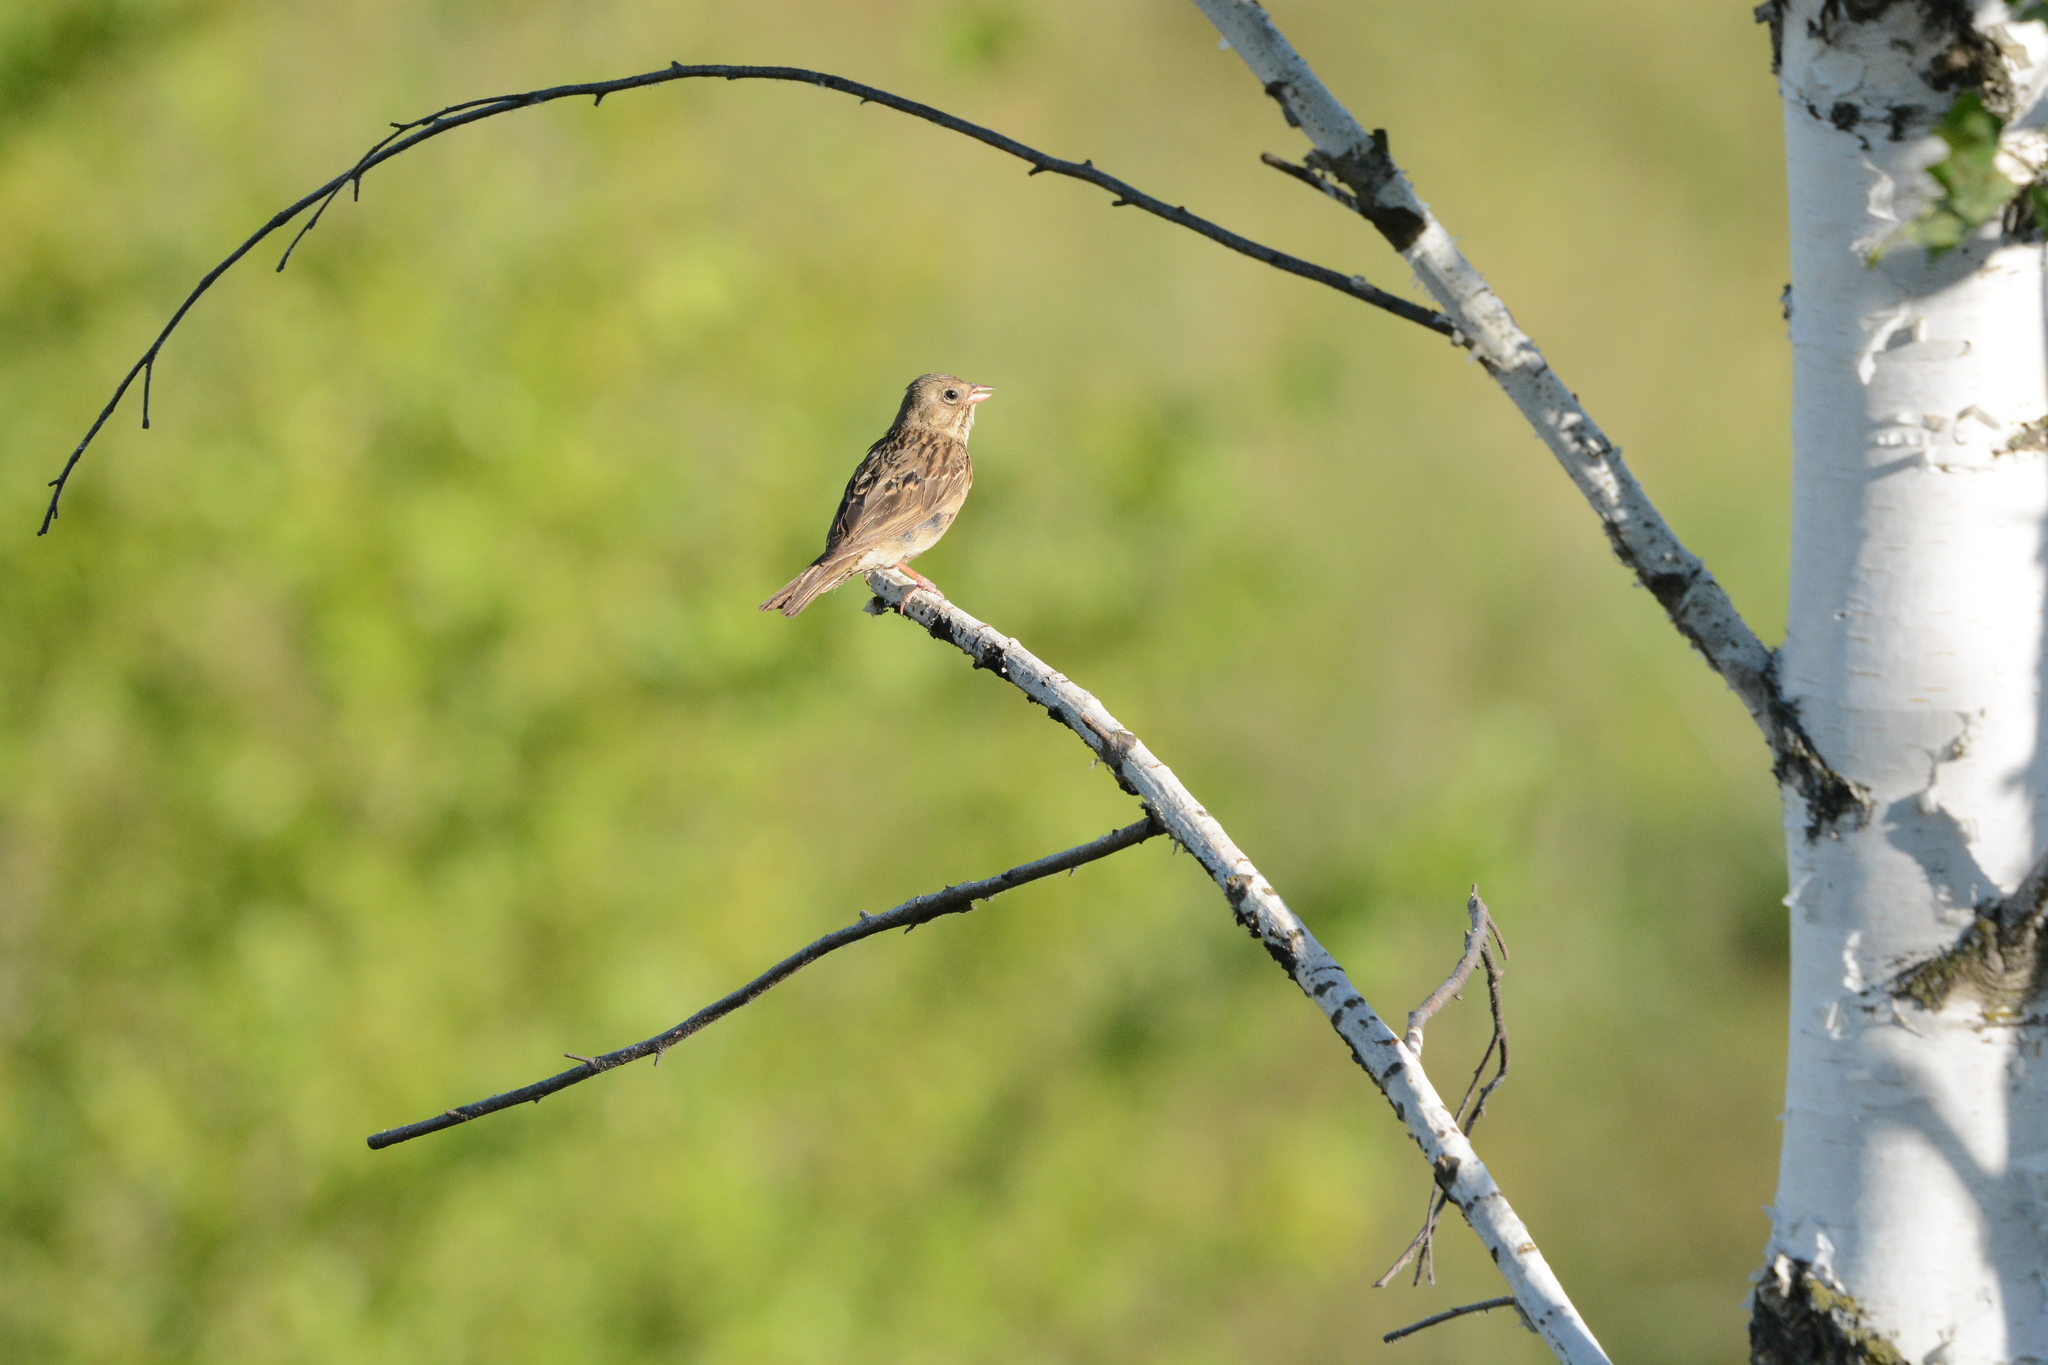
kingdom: Animalia
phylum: Chordata
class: Aves
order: Passeriformes
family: Emberizidae
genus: Emberiza
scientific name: Emberiza calandra
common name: Corn bunting
